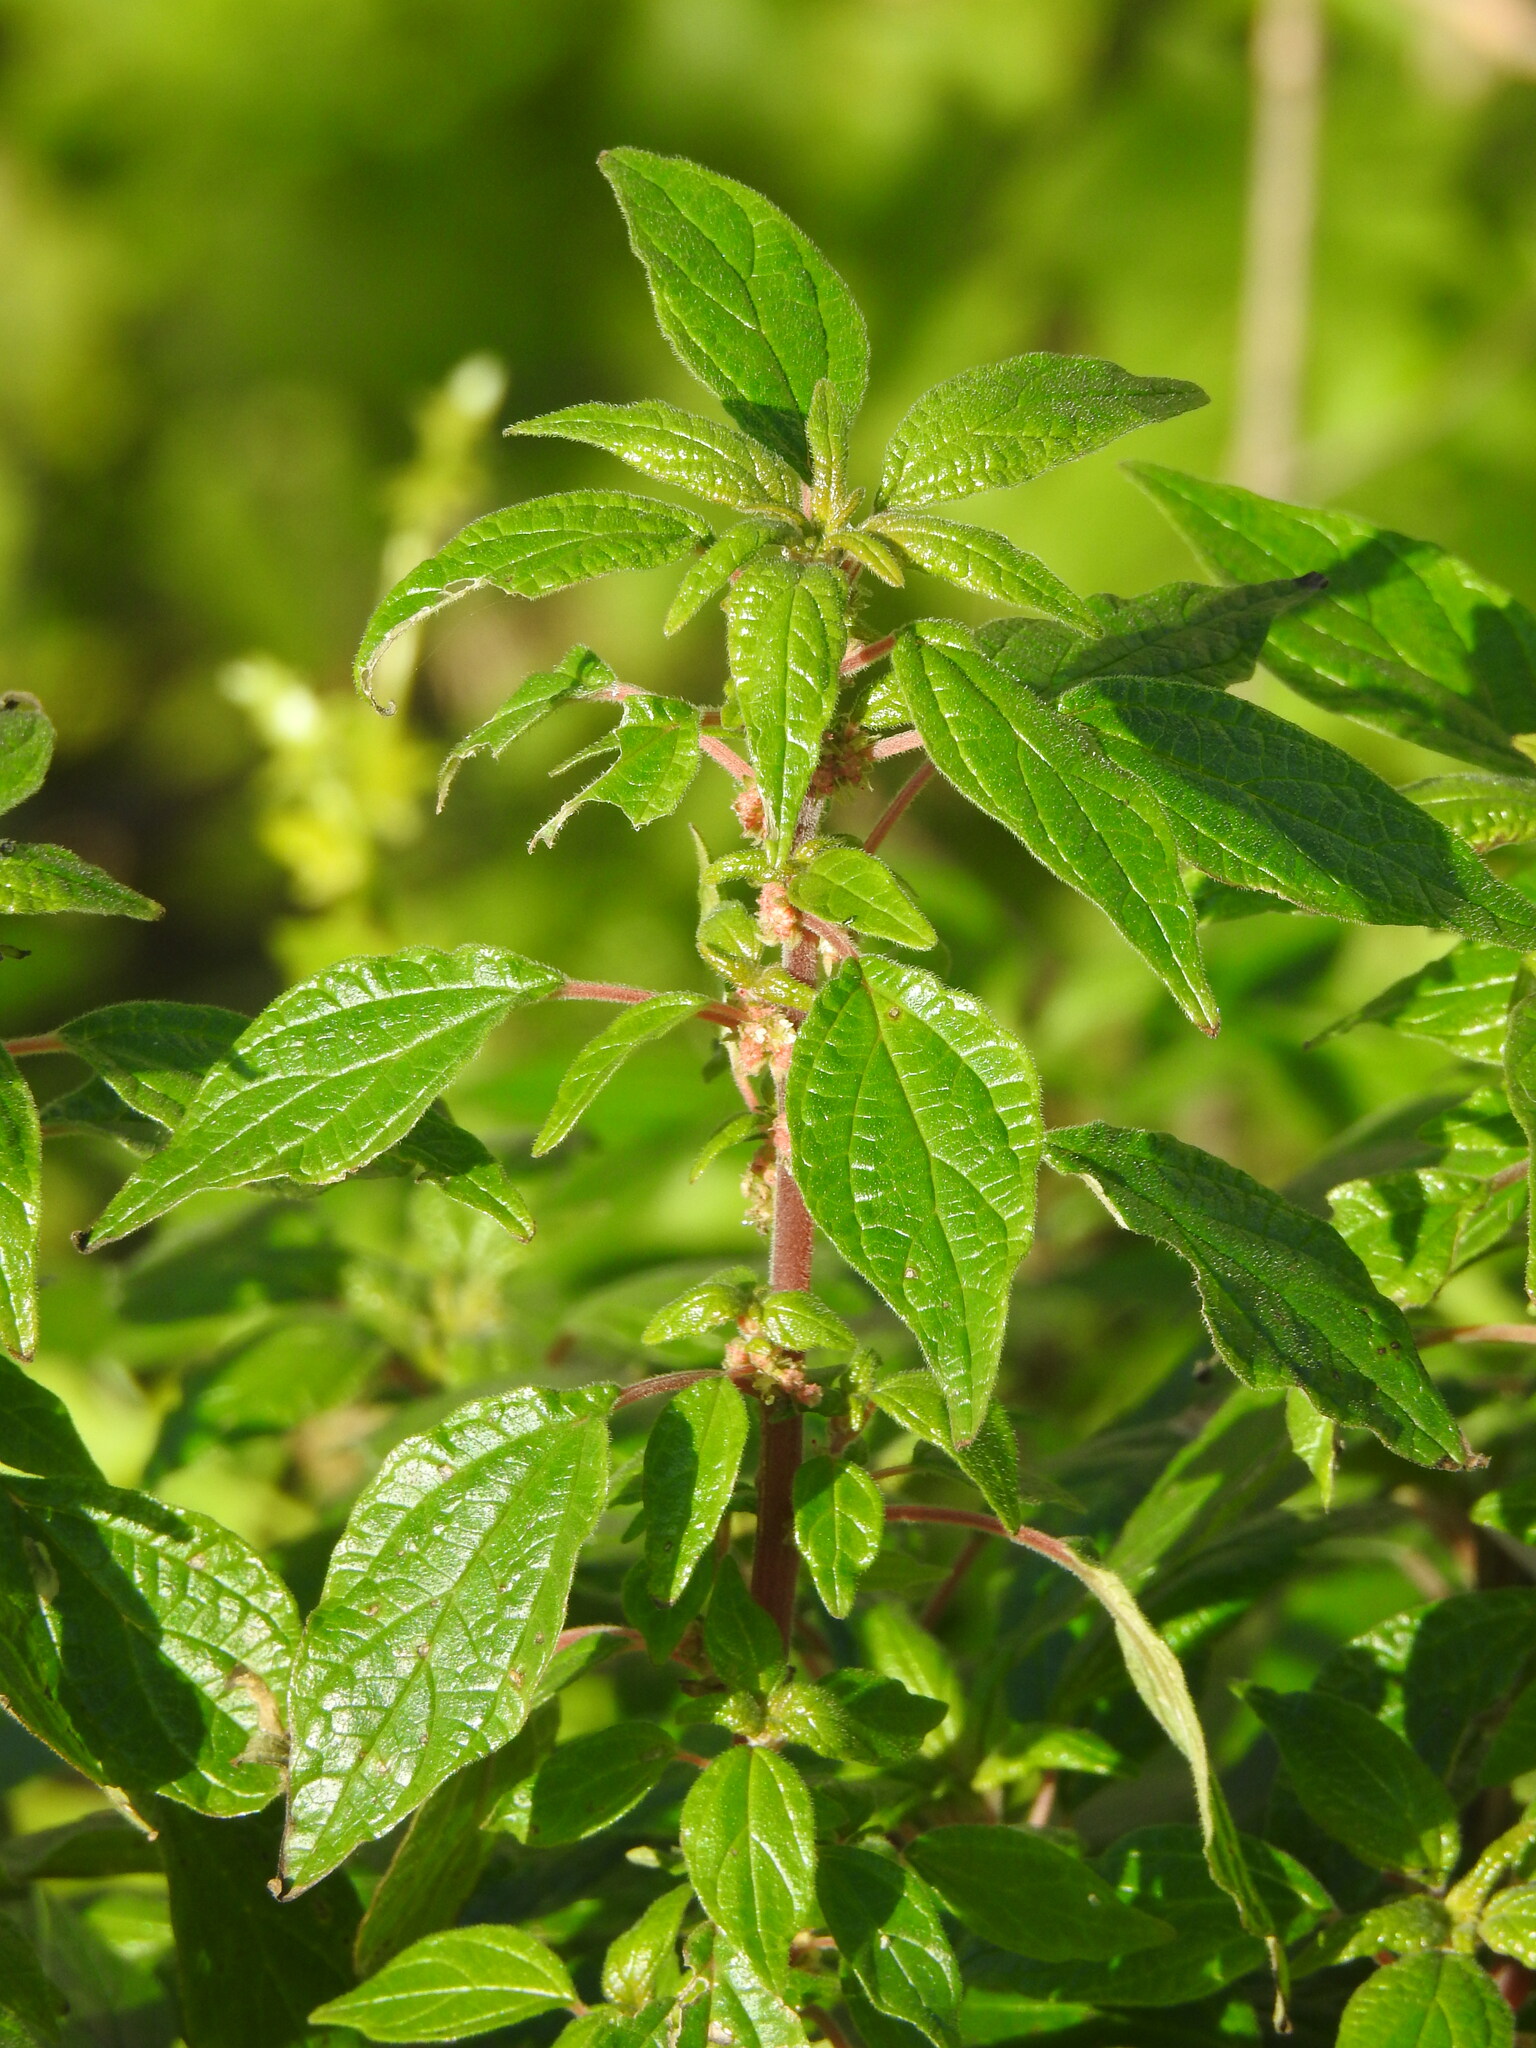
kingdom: Plantae
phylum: Tracheophyta
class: Magnoliopsida
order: Rosales
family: Urticaceae
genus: Parietaria
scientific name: Parietaria judaica
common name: Pellitory-of-the-wall
